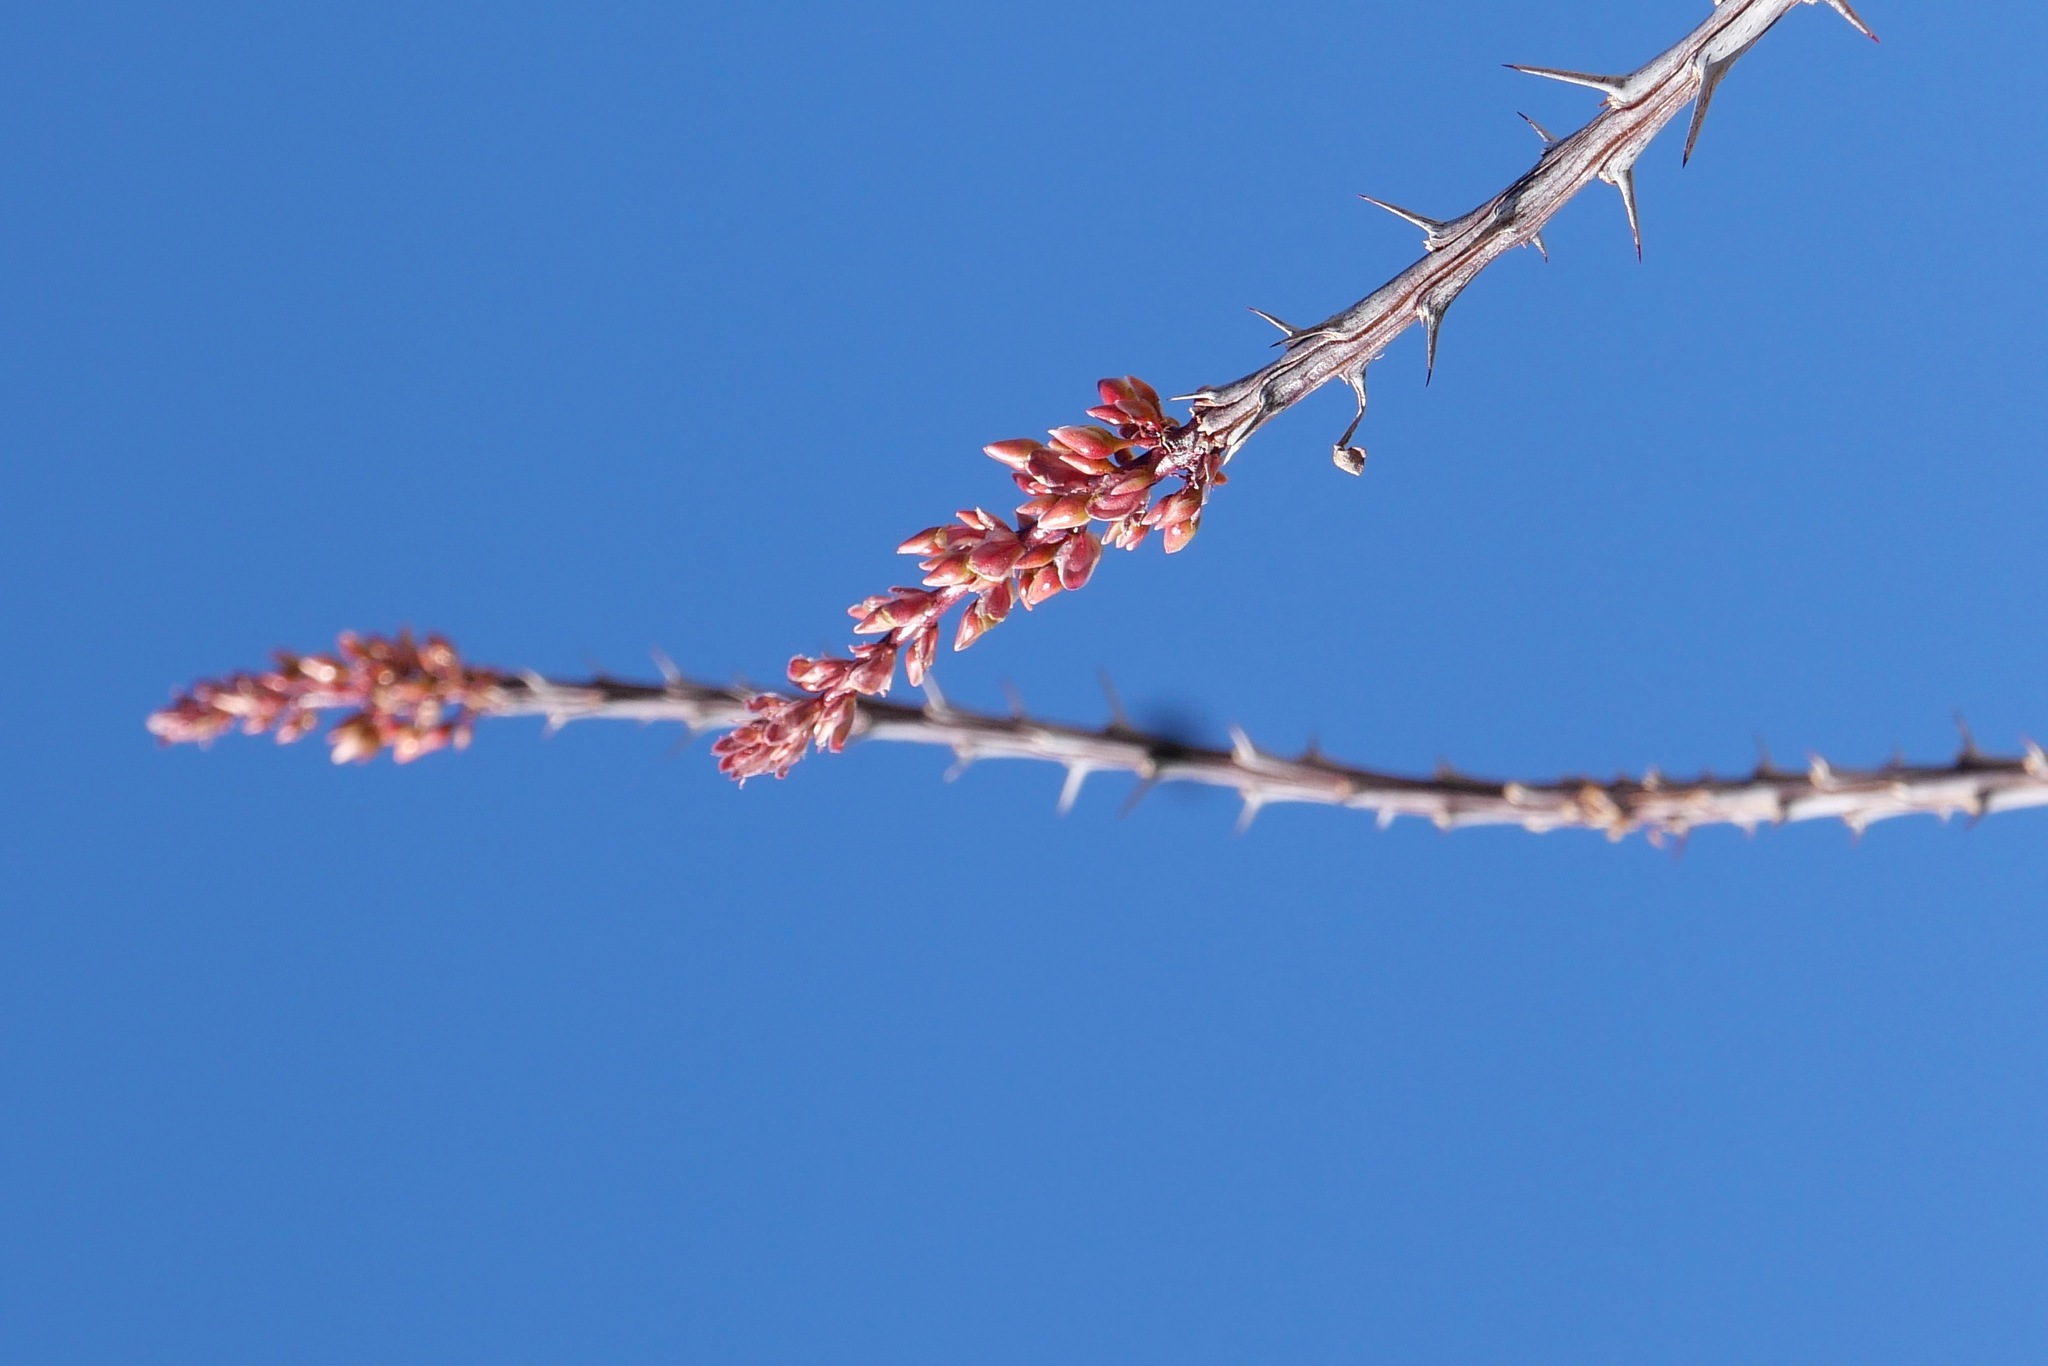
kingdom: Plantae
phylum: Tracheophyta
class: Magnoliopsida
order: Ericales
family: Fouquieriaceae
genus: Fouquieria
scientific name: Fouquieria splendens
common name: Vine-cactus
